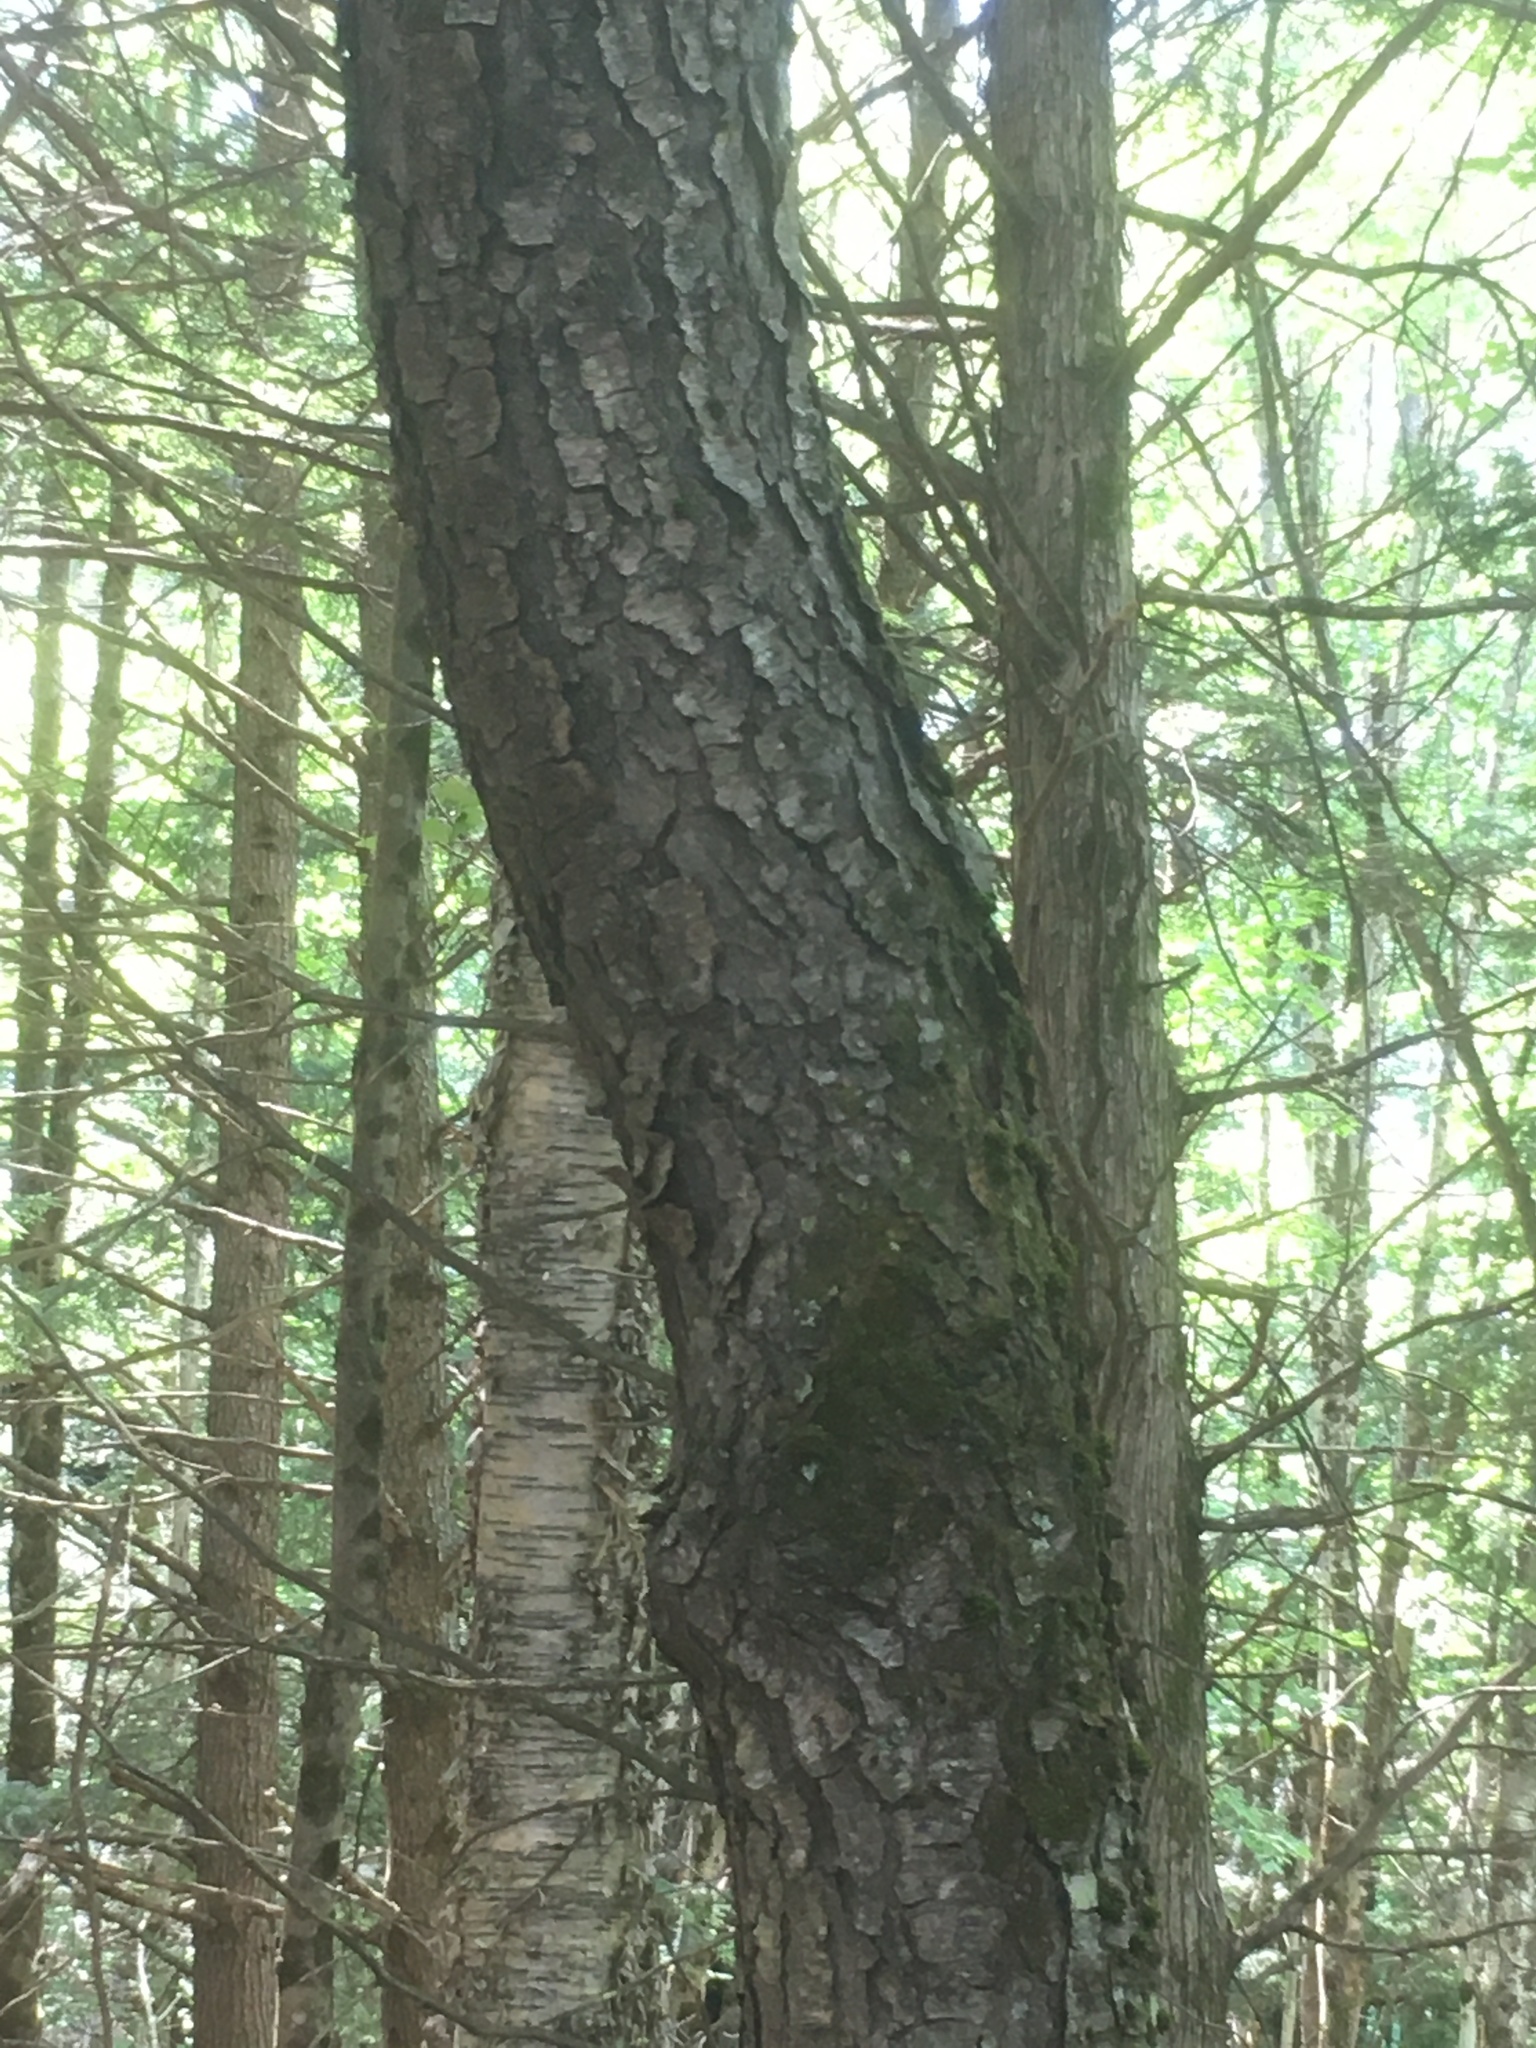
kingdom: Plantae
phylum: Tracheophyta
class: Magnoliopsida
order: Rosales
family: Rosaceae
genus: Prunus
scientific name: Prunus serotina
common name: Black cherry
